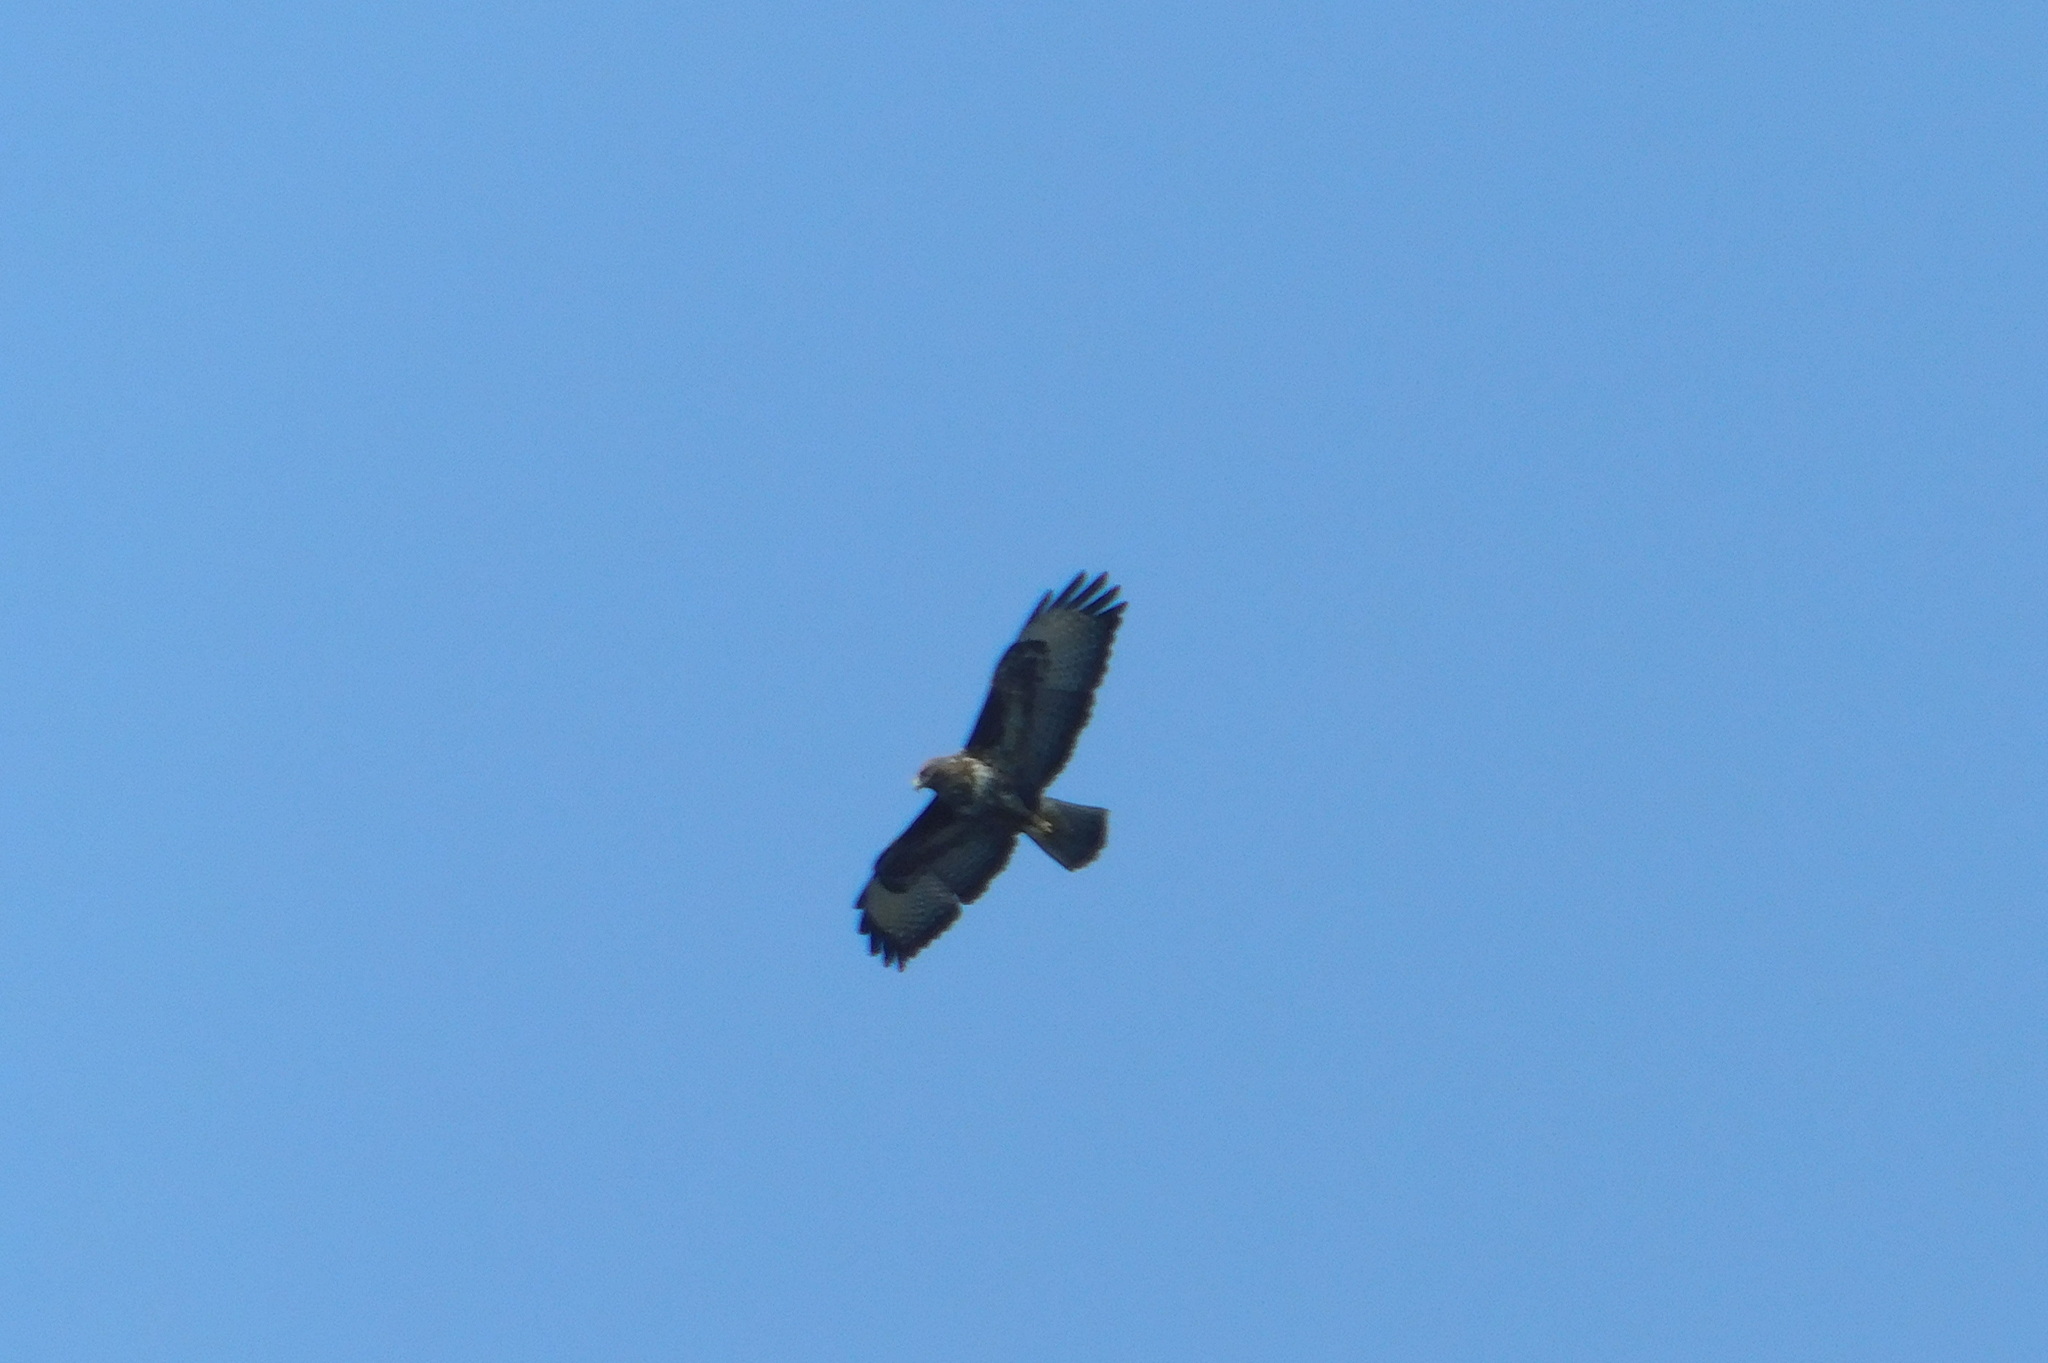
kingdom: Animalia
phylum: Chordata
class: Aves
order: Accipitriformes
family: Accipitridae
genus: Buteo
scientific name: Buteo buteo
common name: Common buzzard
